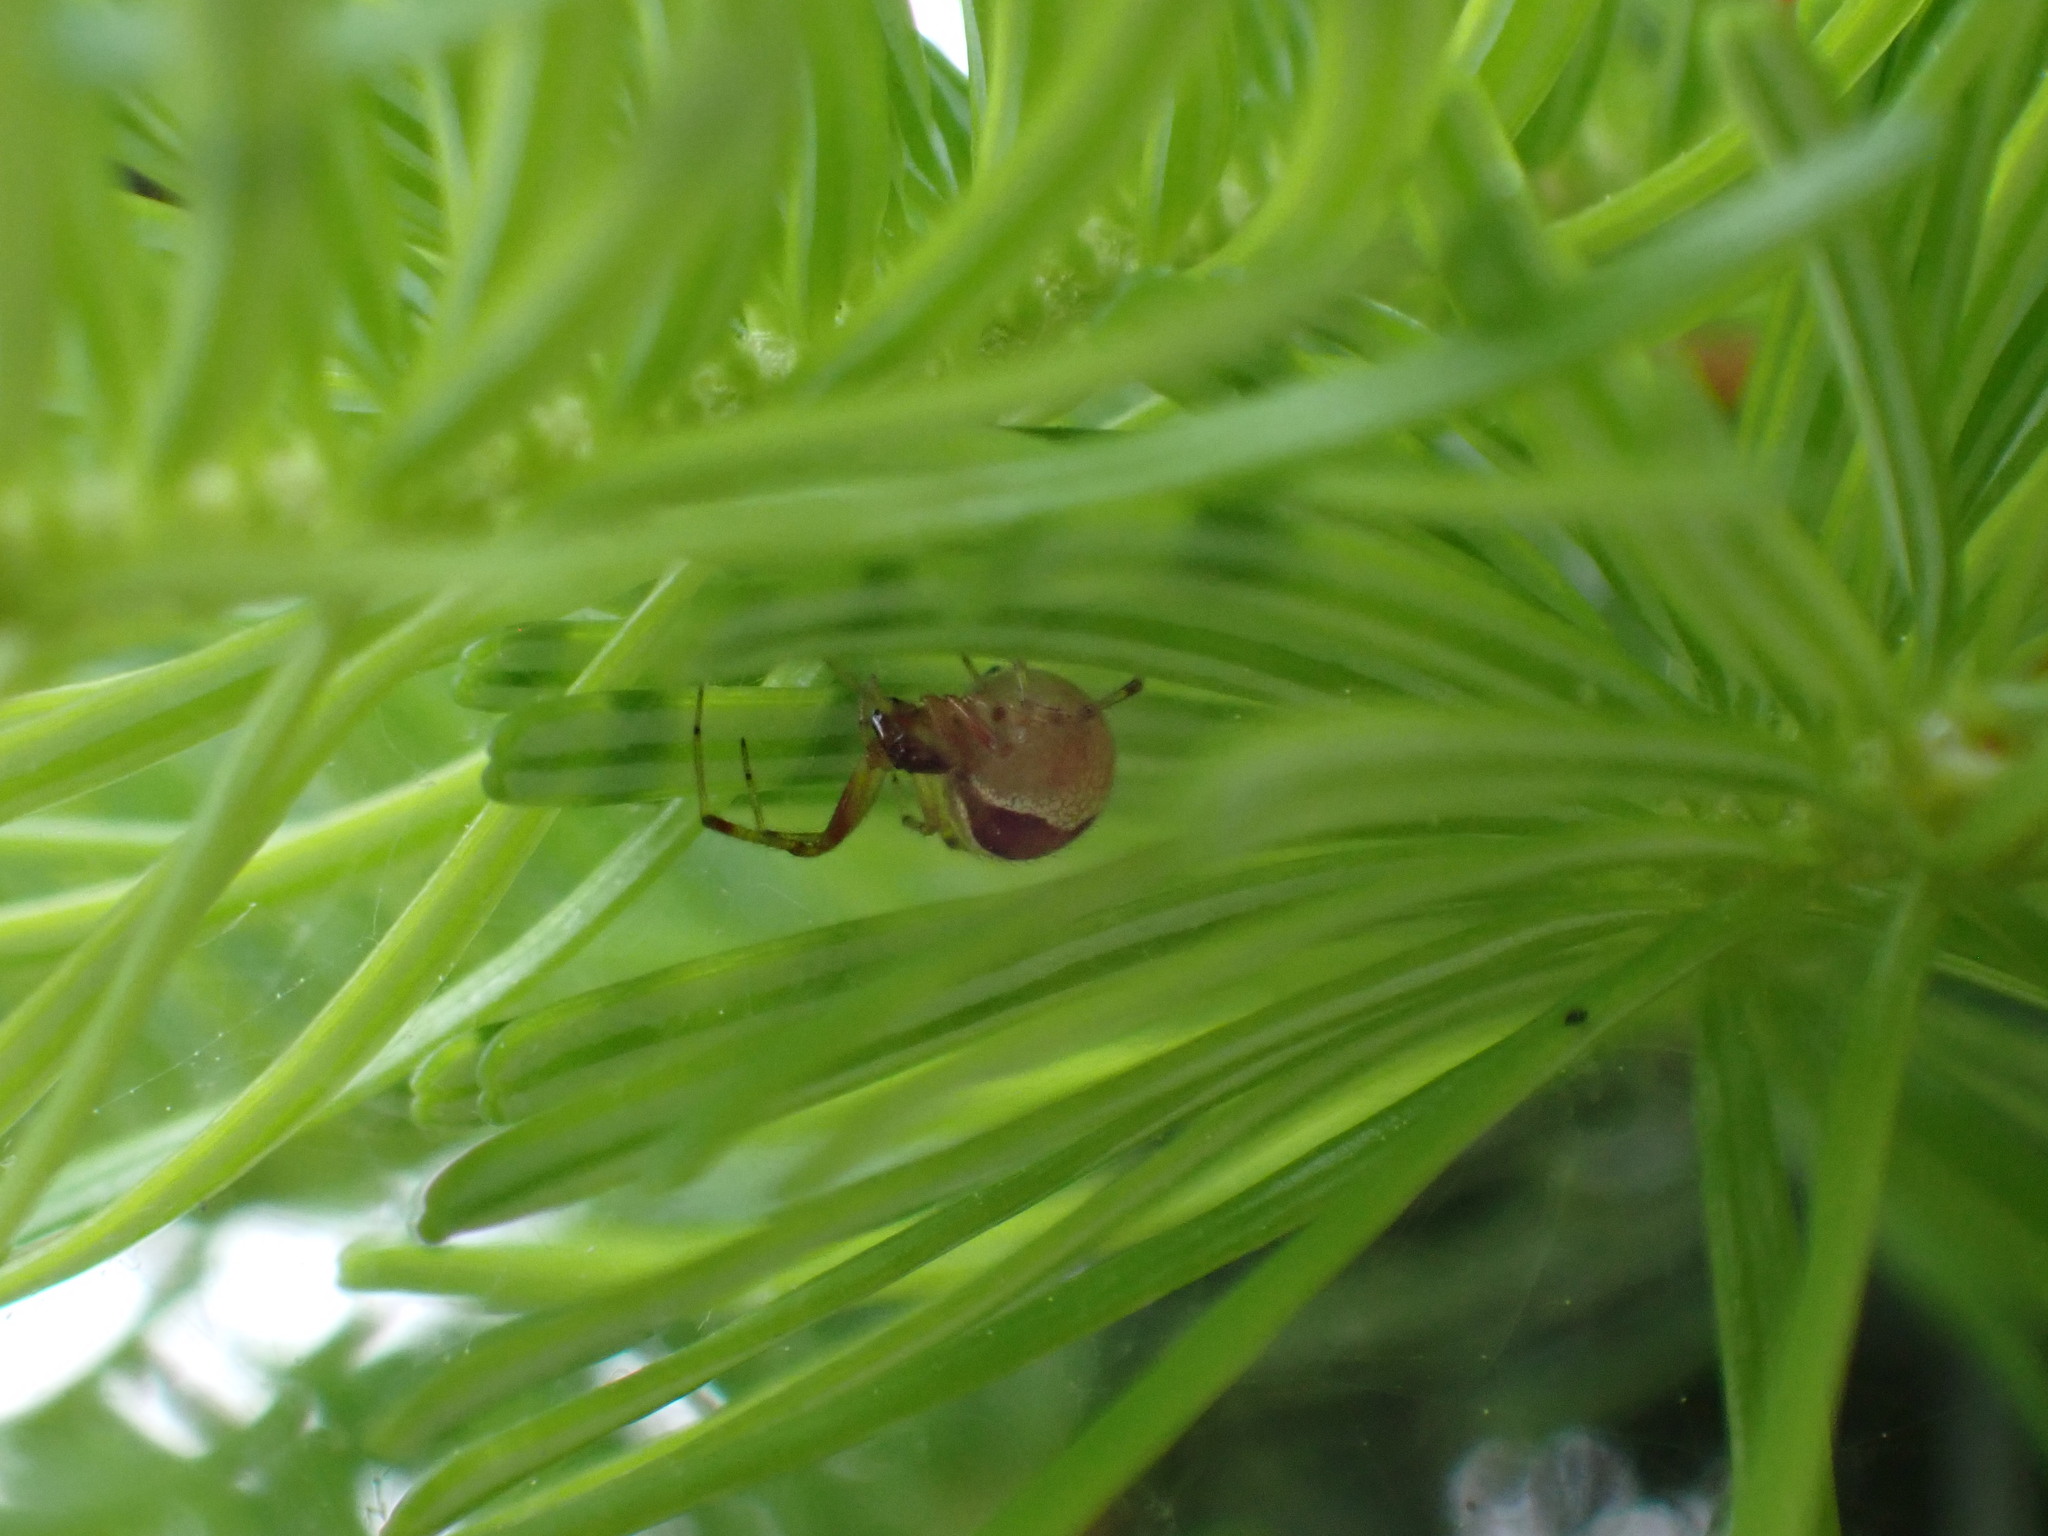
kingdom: Animalia
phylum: Arthropoda
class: Arachnida
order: Araneae
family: Theridiidae
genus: Anelosimus
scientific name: Anelosimus vittatus
